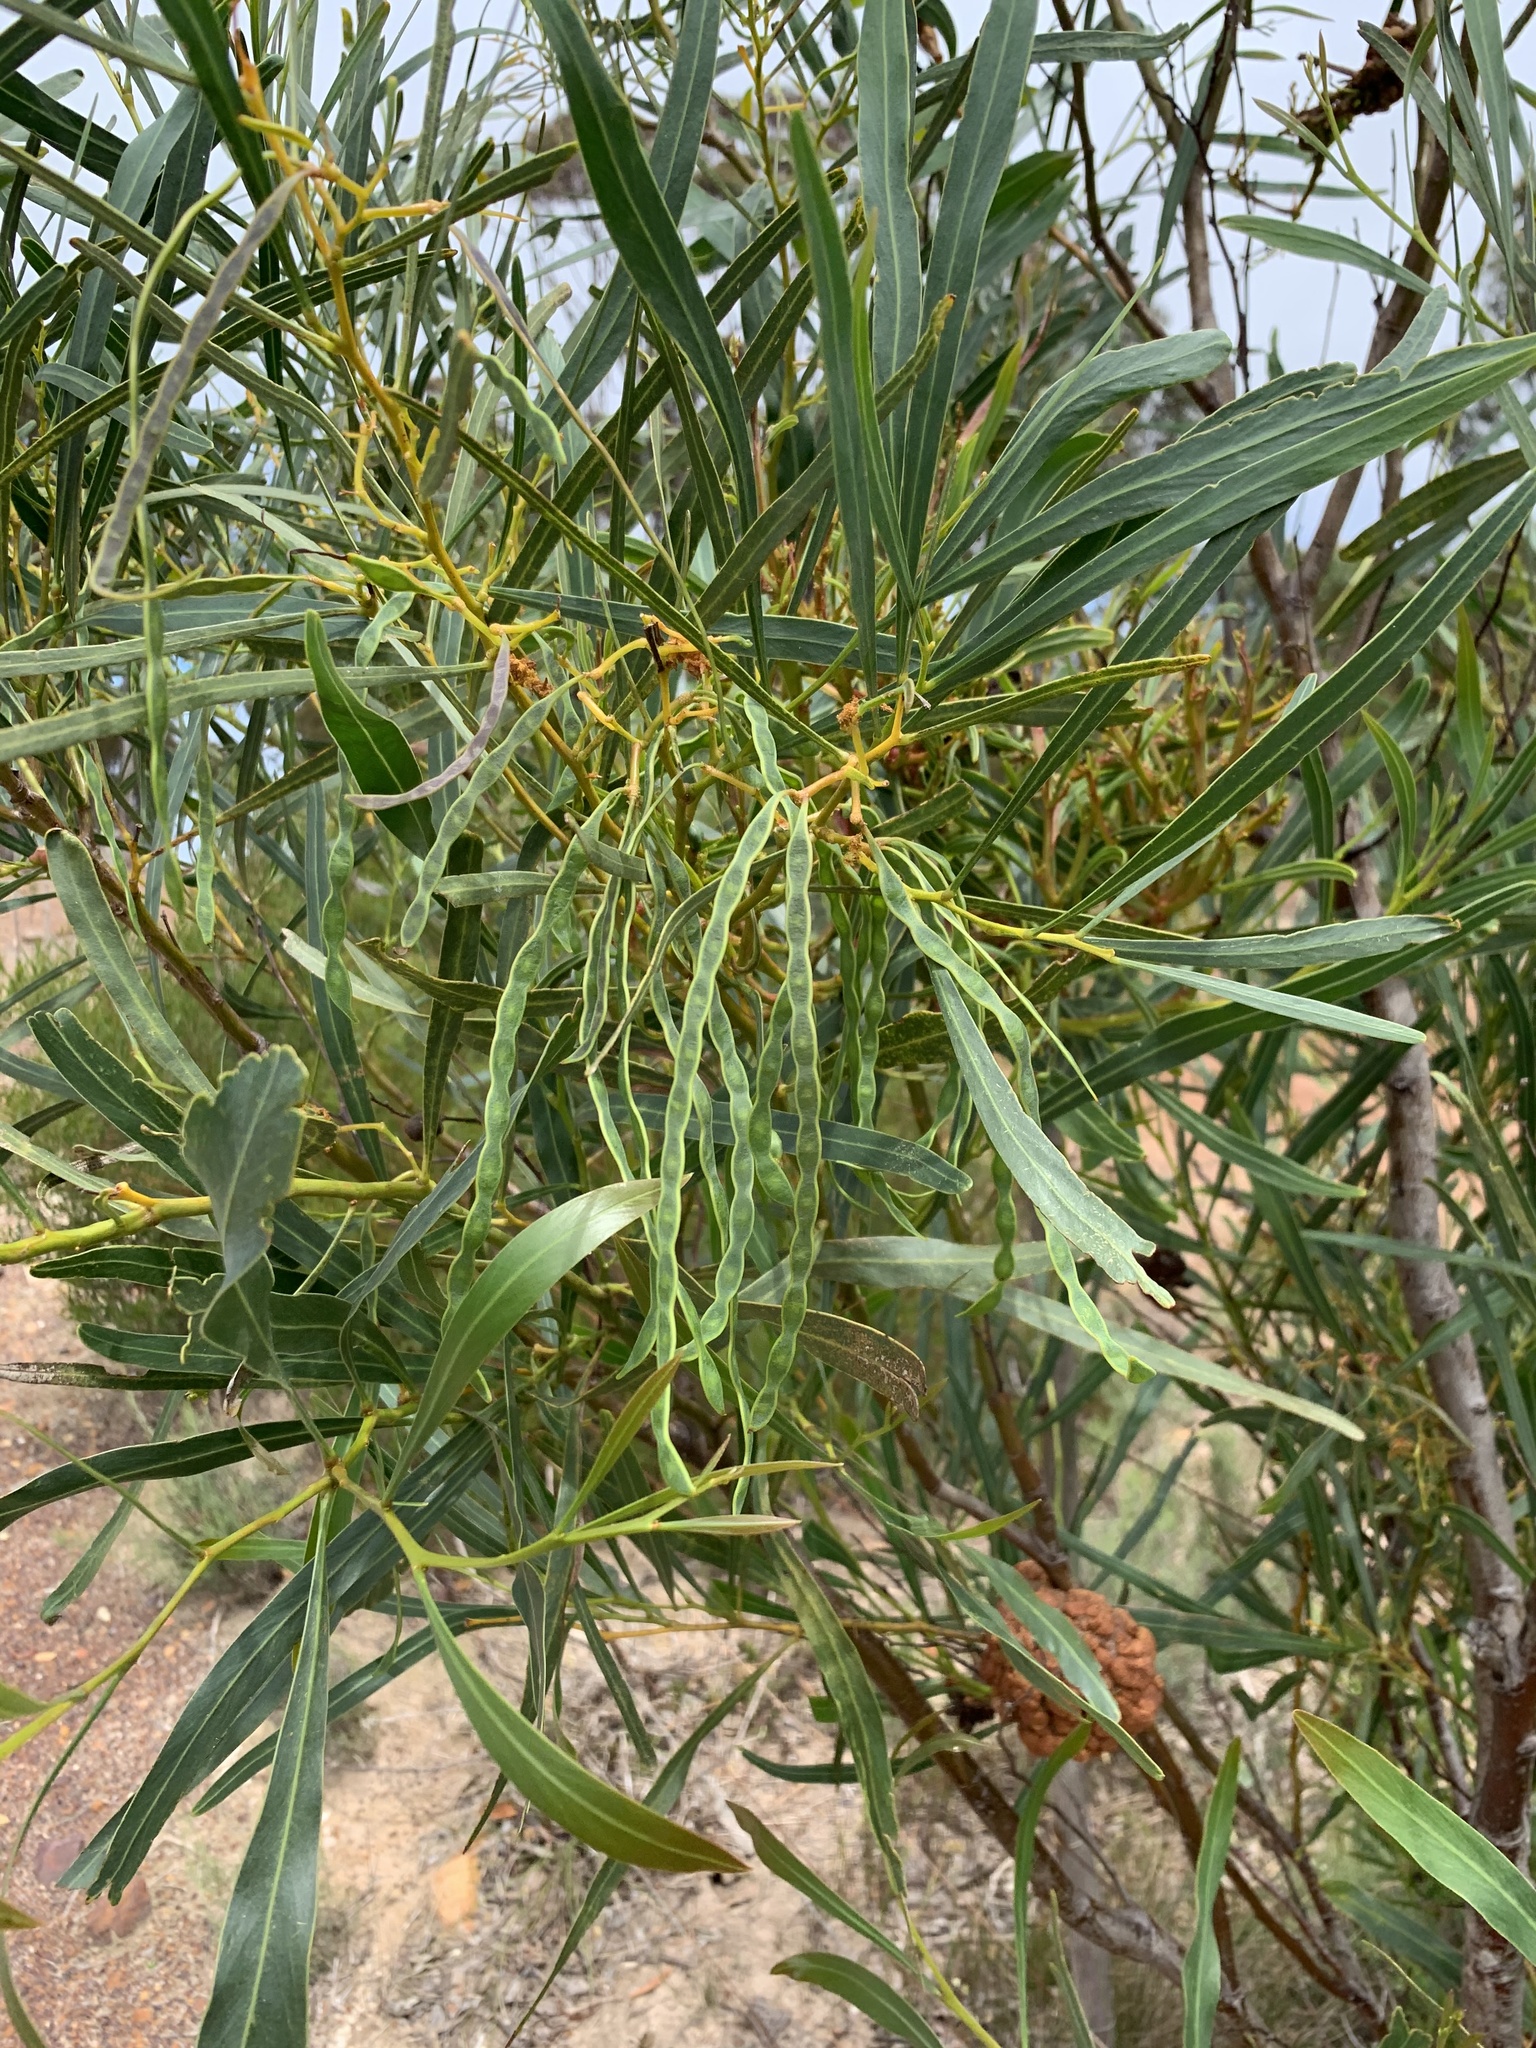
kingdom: Plantae
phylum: Tracheophyta
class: Magnoliopsida
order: Fabales
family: Fabaceae
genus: Acacia
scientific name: Acacia saligna
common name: Orange wattle
